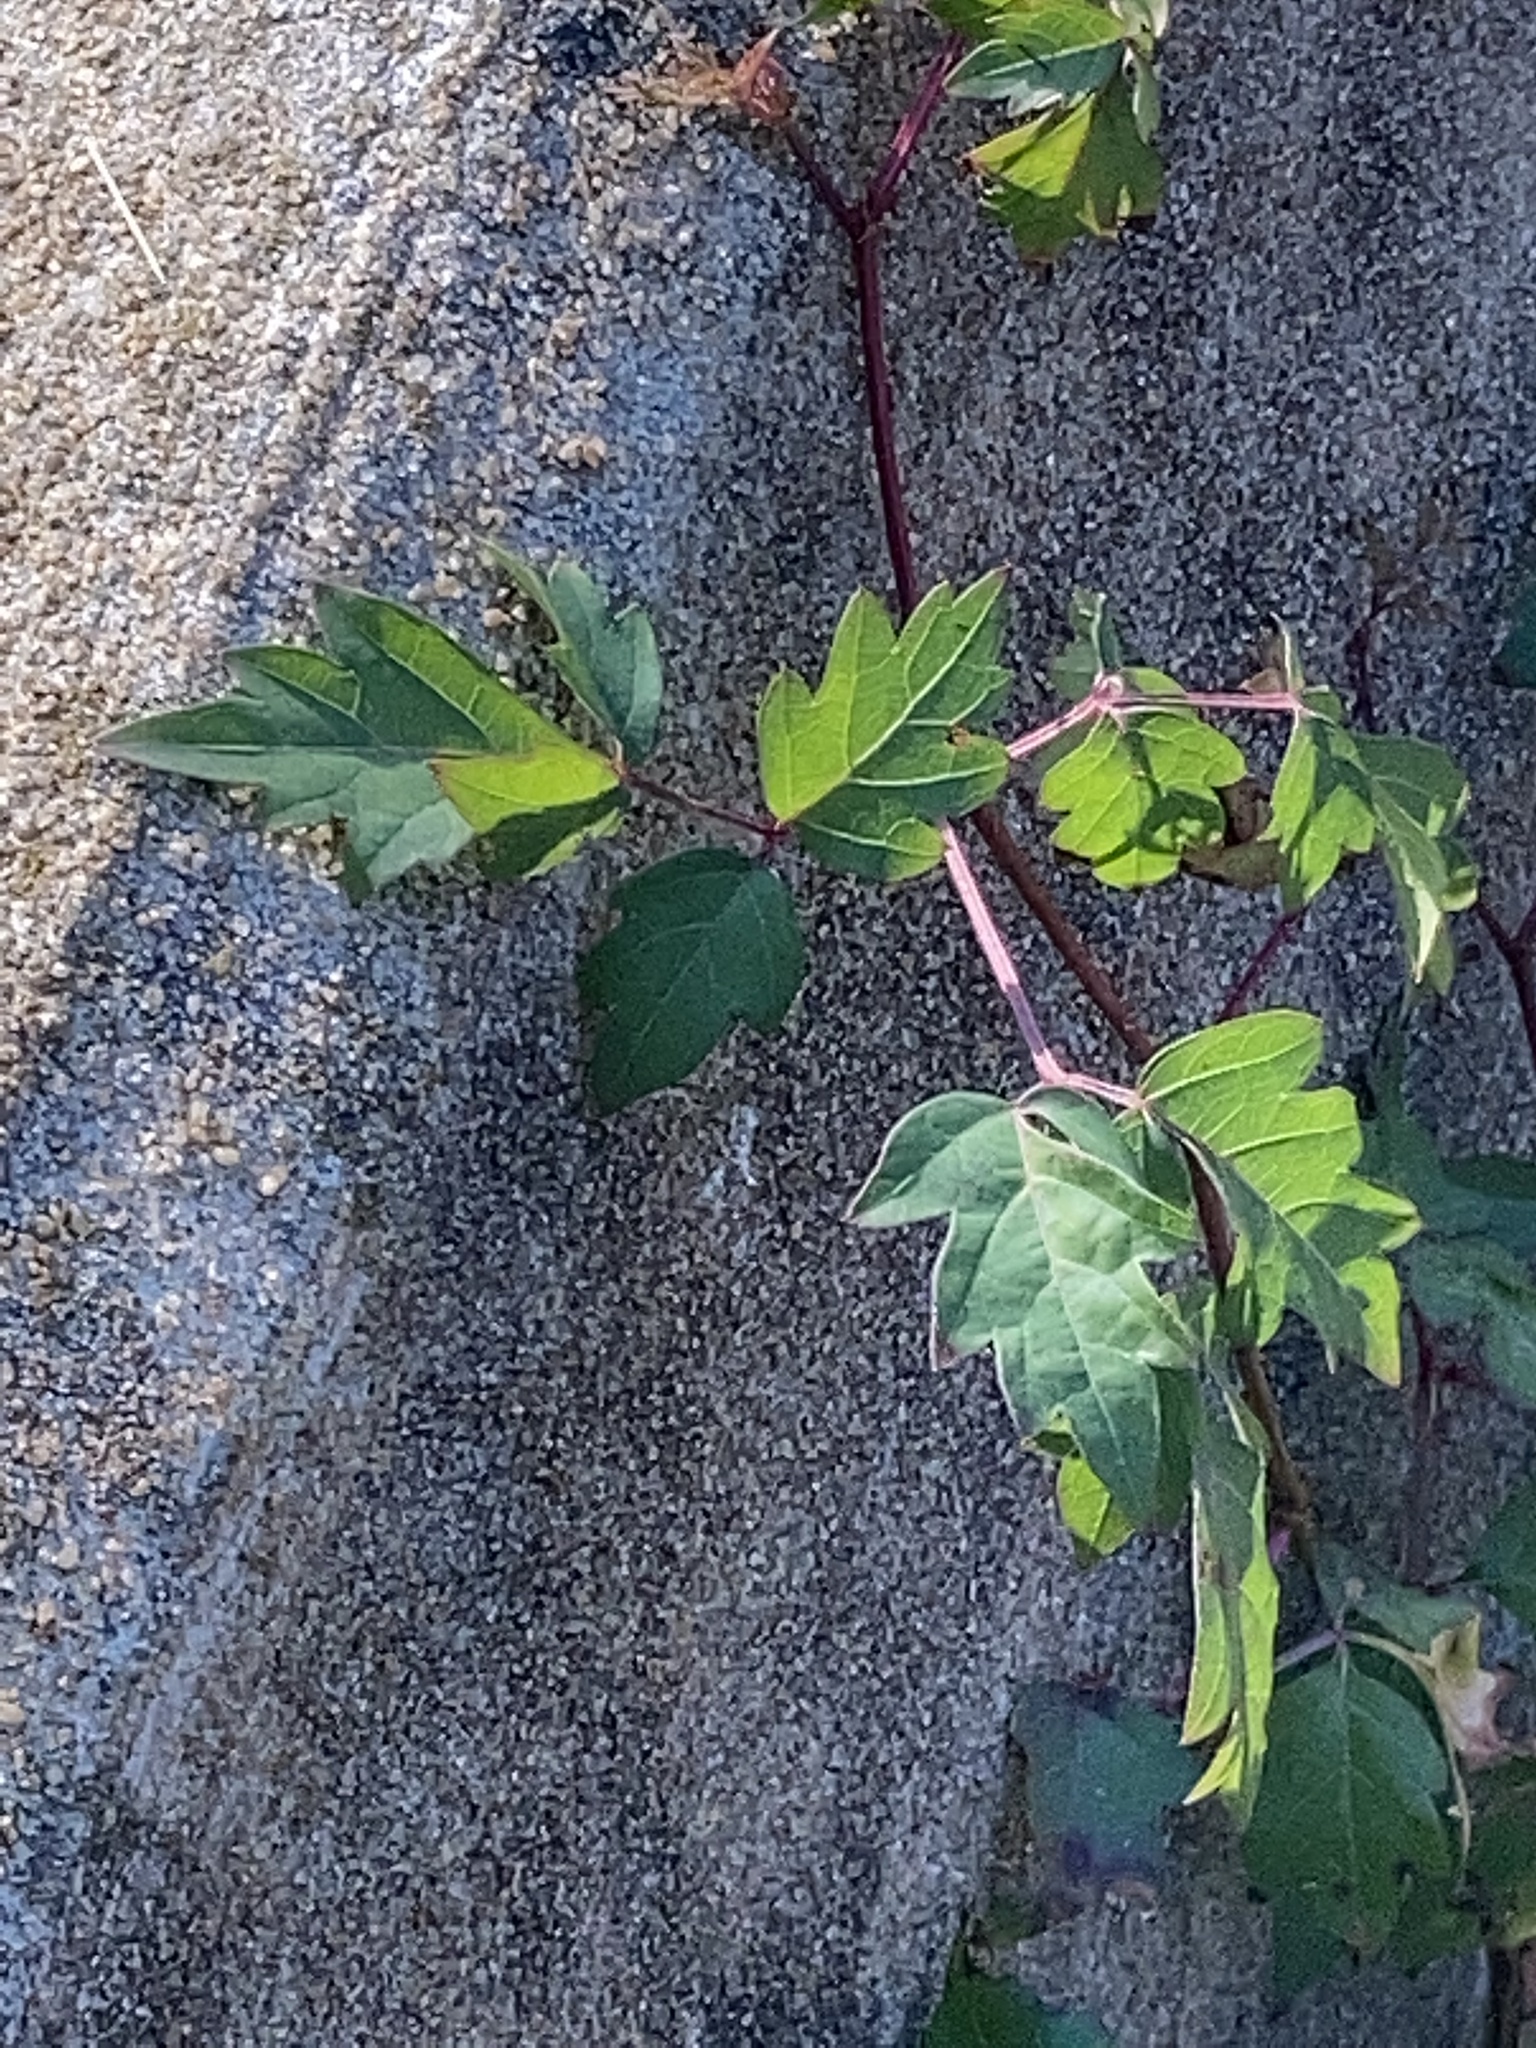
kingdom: Plantae
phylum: Tracheophyta
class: Magnoliopsida
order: Vitales
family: Vitaceae
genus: Nekemias
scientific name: Nekemias arborea
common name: Peppervine
